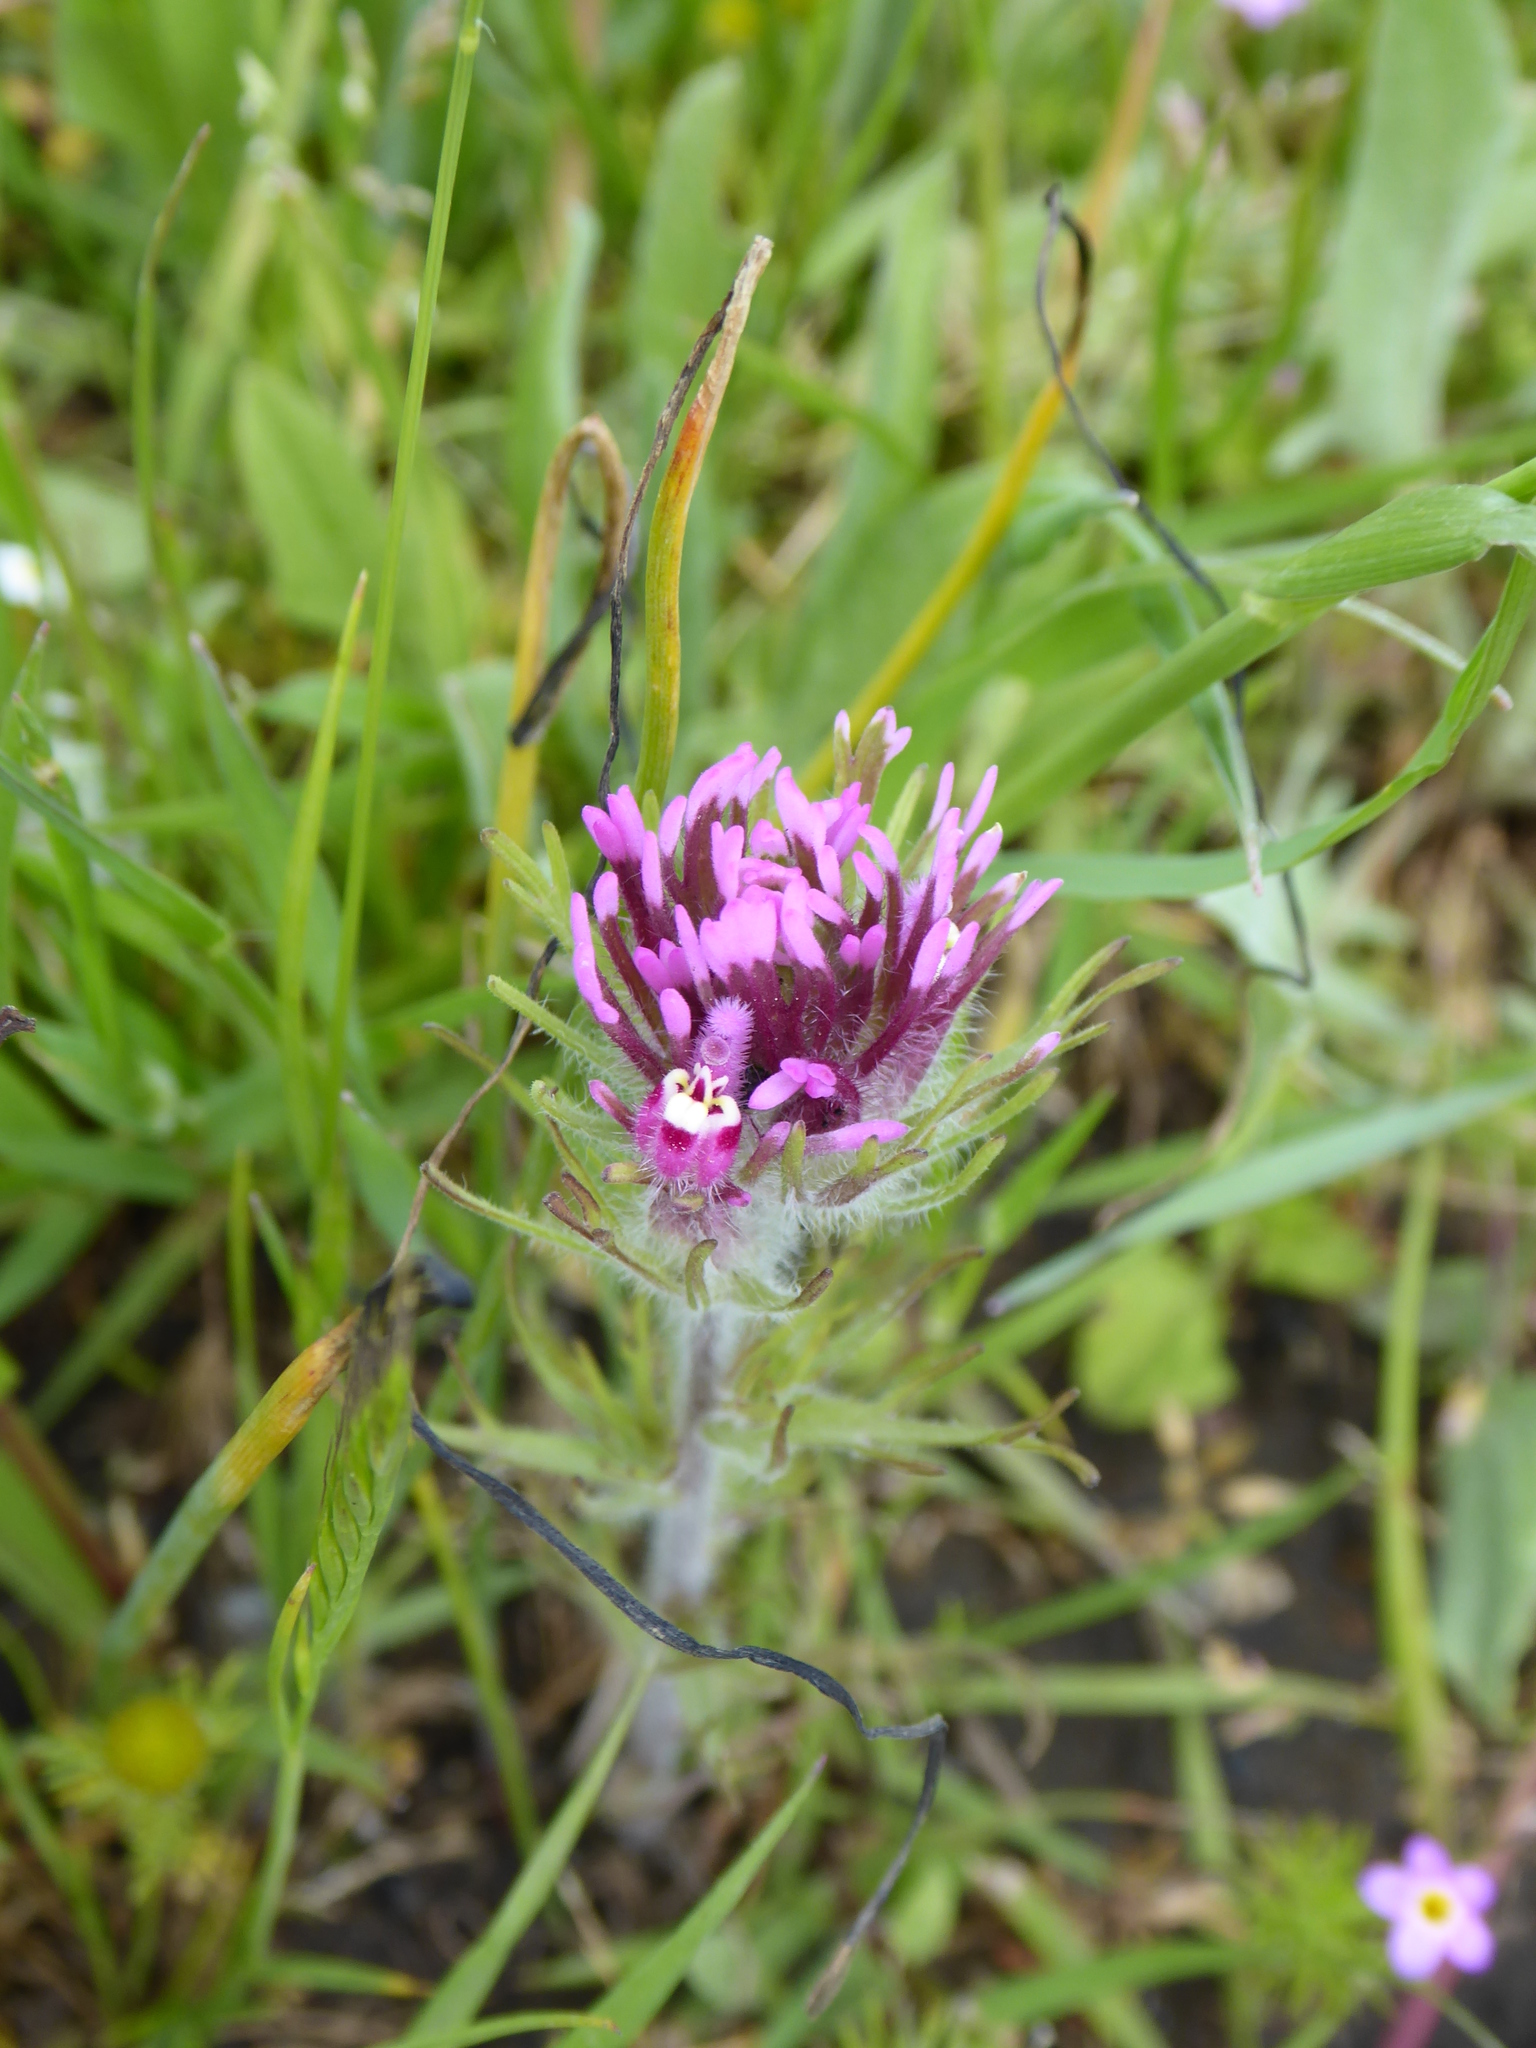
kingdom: Plantae
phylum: Tracheophyta
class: Magnoliopsida
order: Lamiales
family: Orobanchaceae
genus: Castilleja
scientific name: Castilleja exserta
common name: Purple owl-clover
